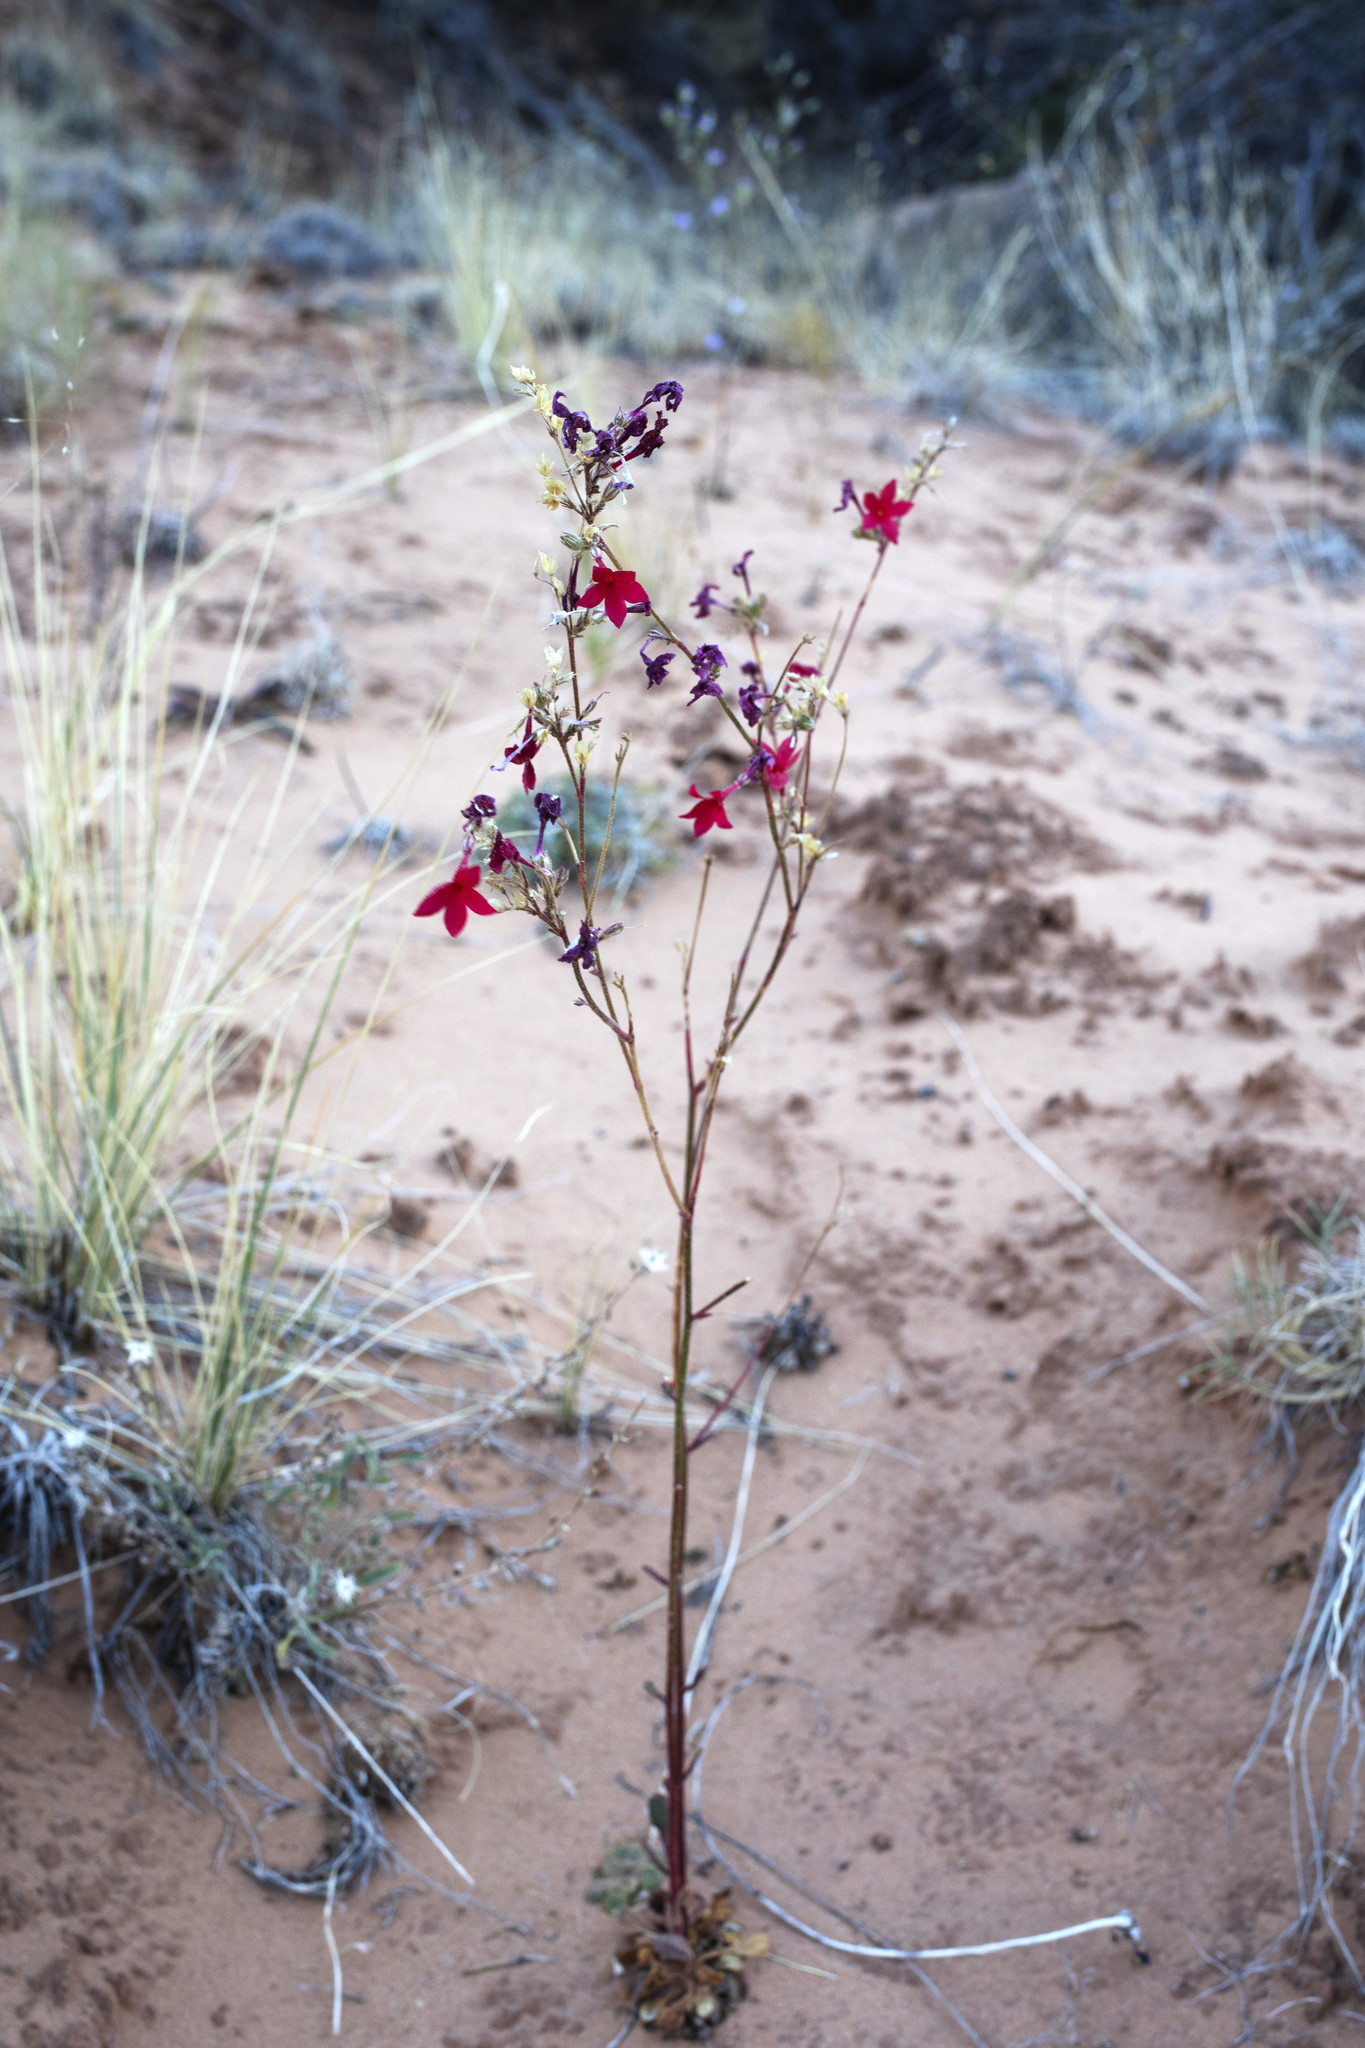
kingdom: Plantae
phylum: Tracheophyta
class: Magnoliopsida
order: Ericales
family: Polemoniaceae
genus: Aliciella
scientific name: Aliciella subnuda
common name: Coral gilia
